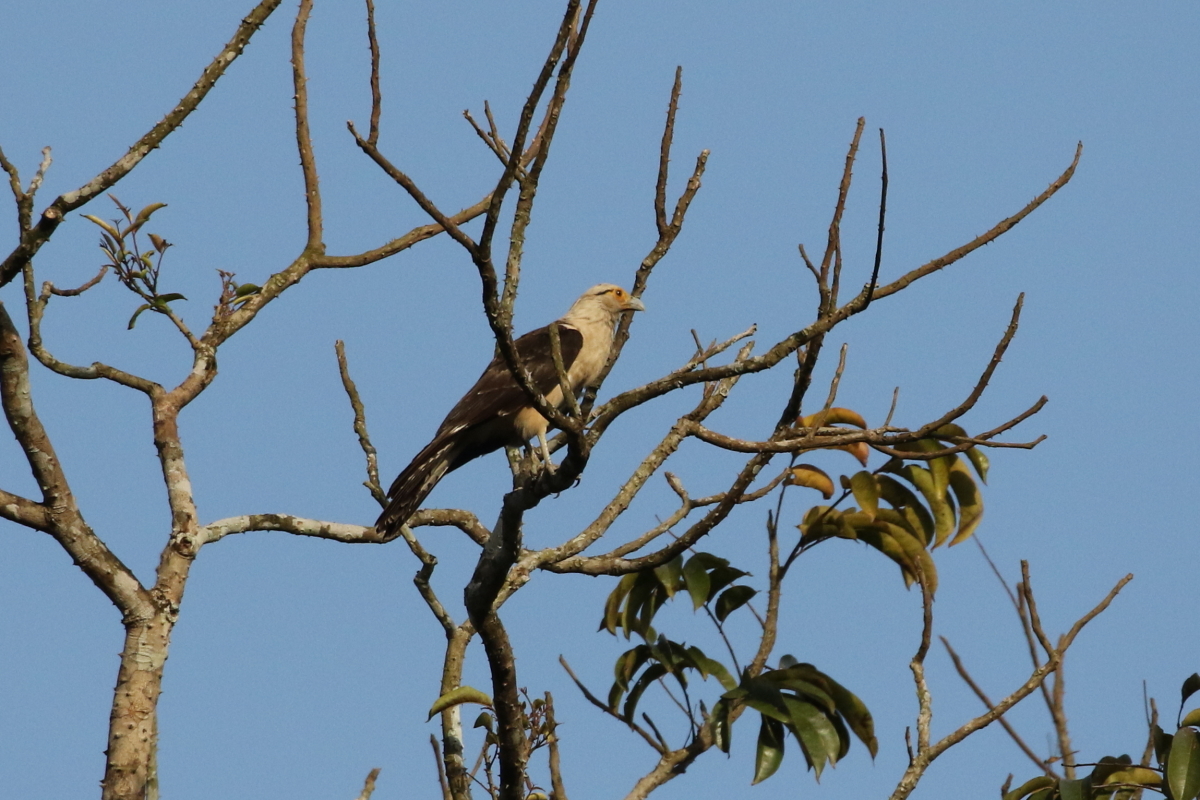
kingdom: Animalia
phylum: Chordata
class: Aves
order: Falconiformes
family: Falconidae
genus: Daptrius
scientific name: Daptrius
